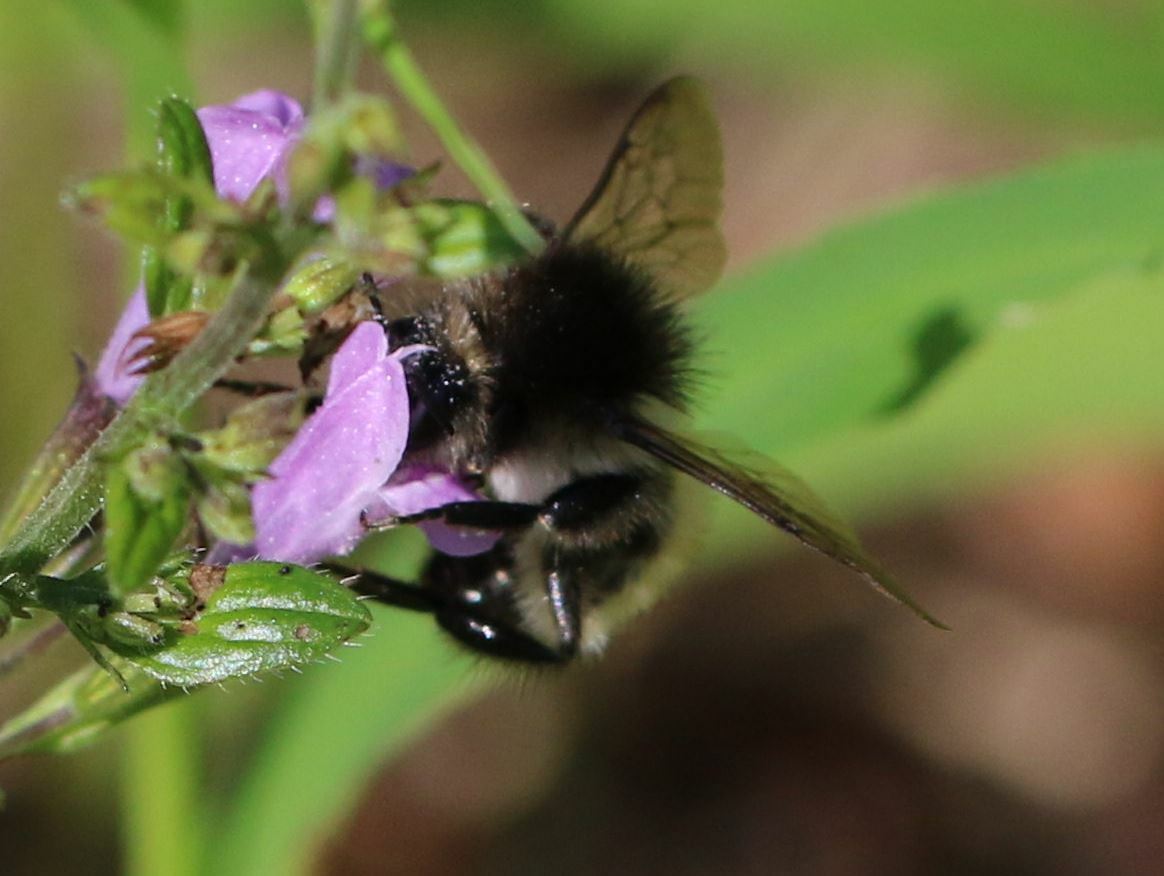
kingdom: Animalia
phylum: Arthropoda
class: Insecta
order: Hymenoptera
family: Apidae
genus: Bombus
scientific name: Bombus humilis
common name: Brown-banded carder-bee
